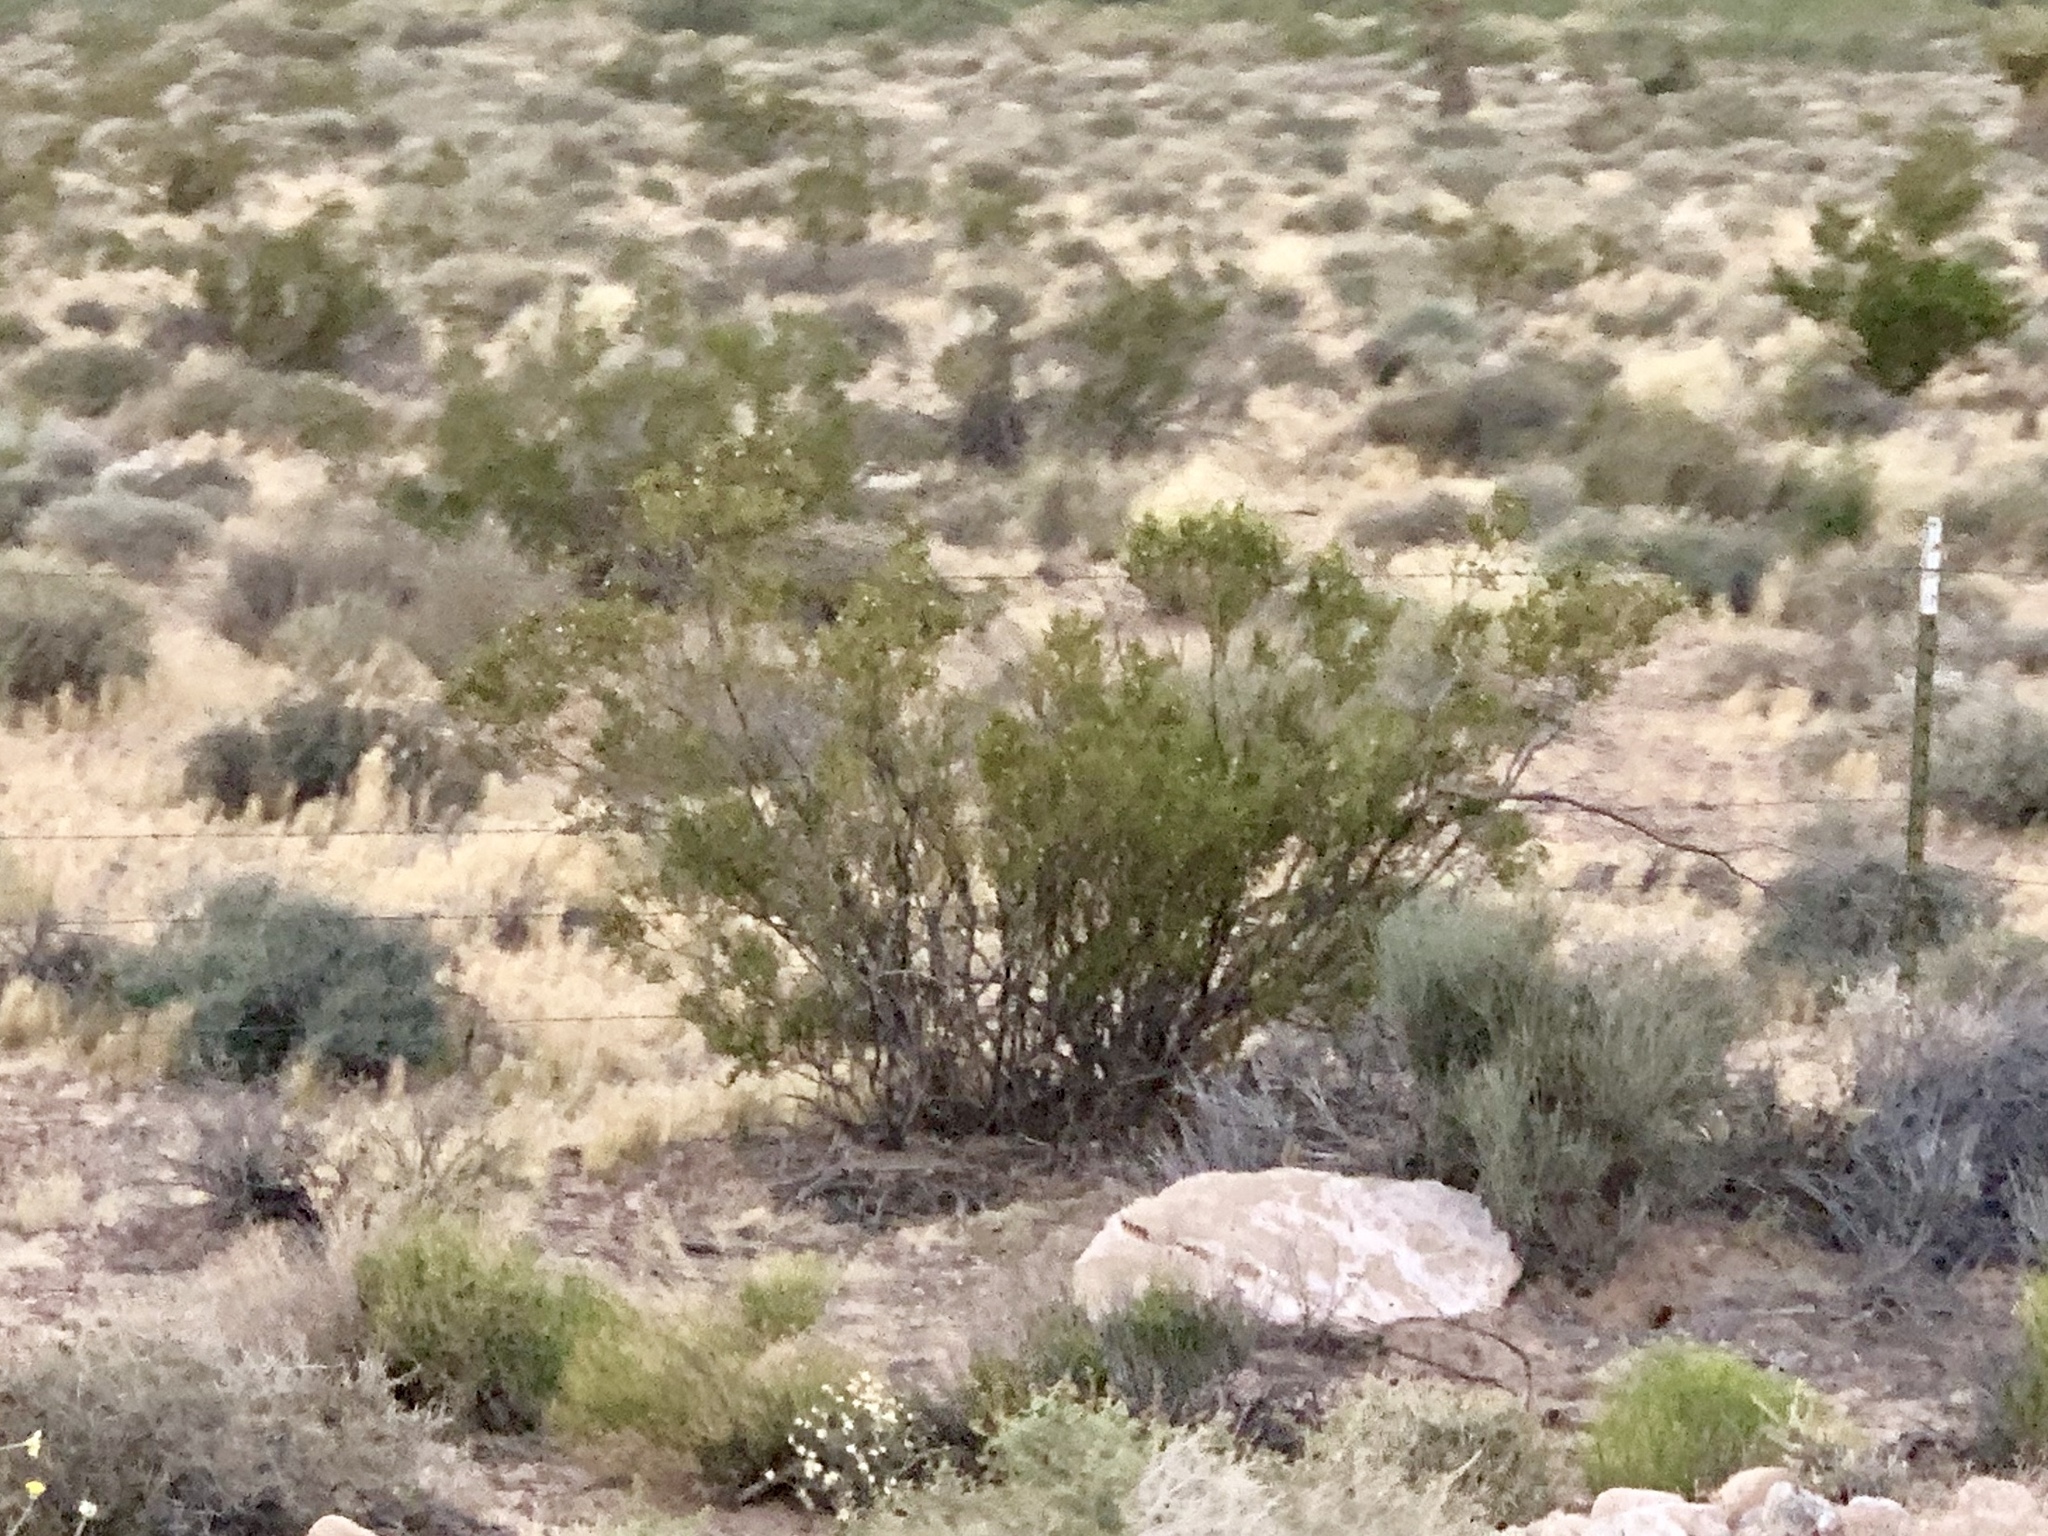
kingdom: Plantae
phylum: Tracheophyta
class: Magnoliopsida
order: Zygophyllales
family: Zygophyllaceae
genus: Larrea
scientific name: Larrea tridentata
